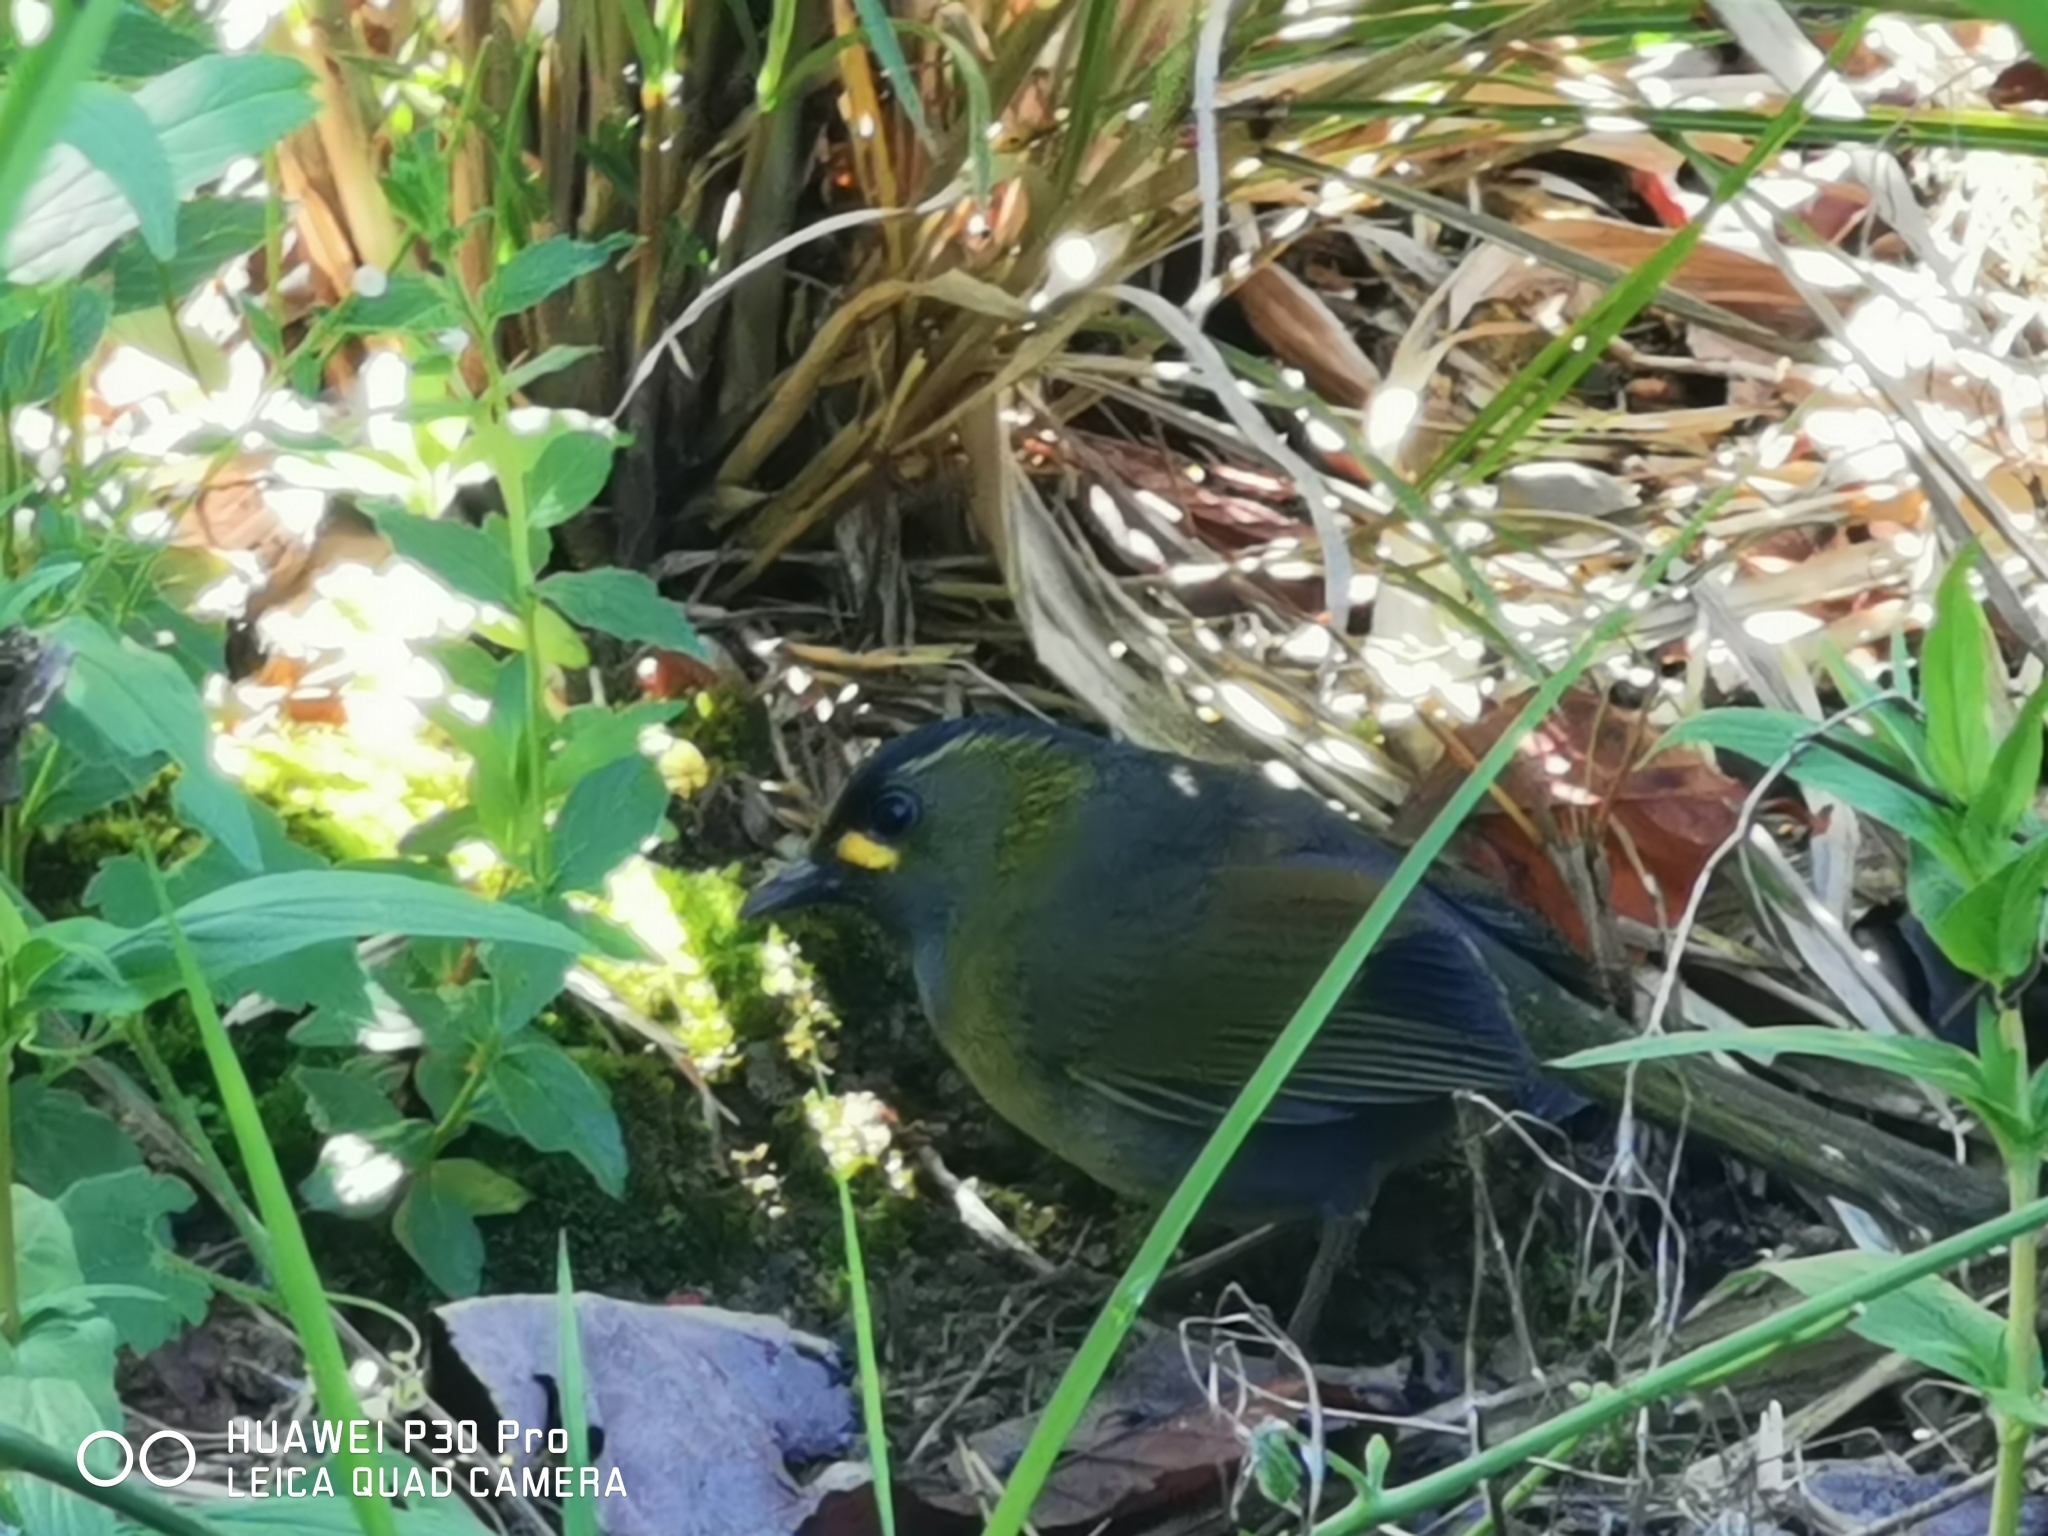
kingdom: Animalia
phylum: Chordata
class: Aves
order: Passeriformes
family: Leiothrichidae
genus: Liocichla
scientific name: Liocichla steerii
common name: Steere's liocichla
